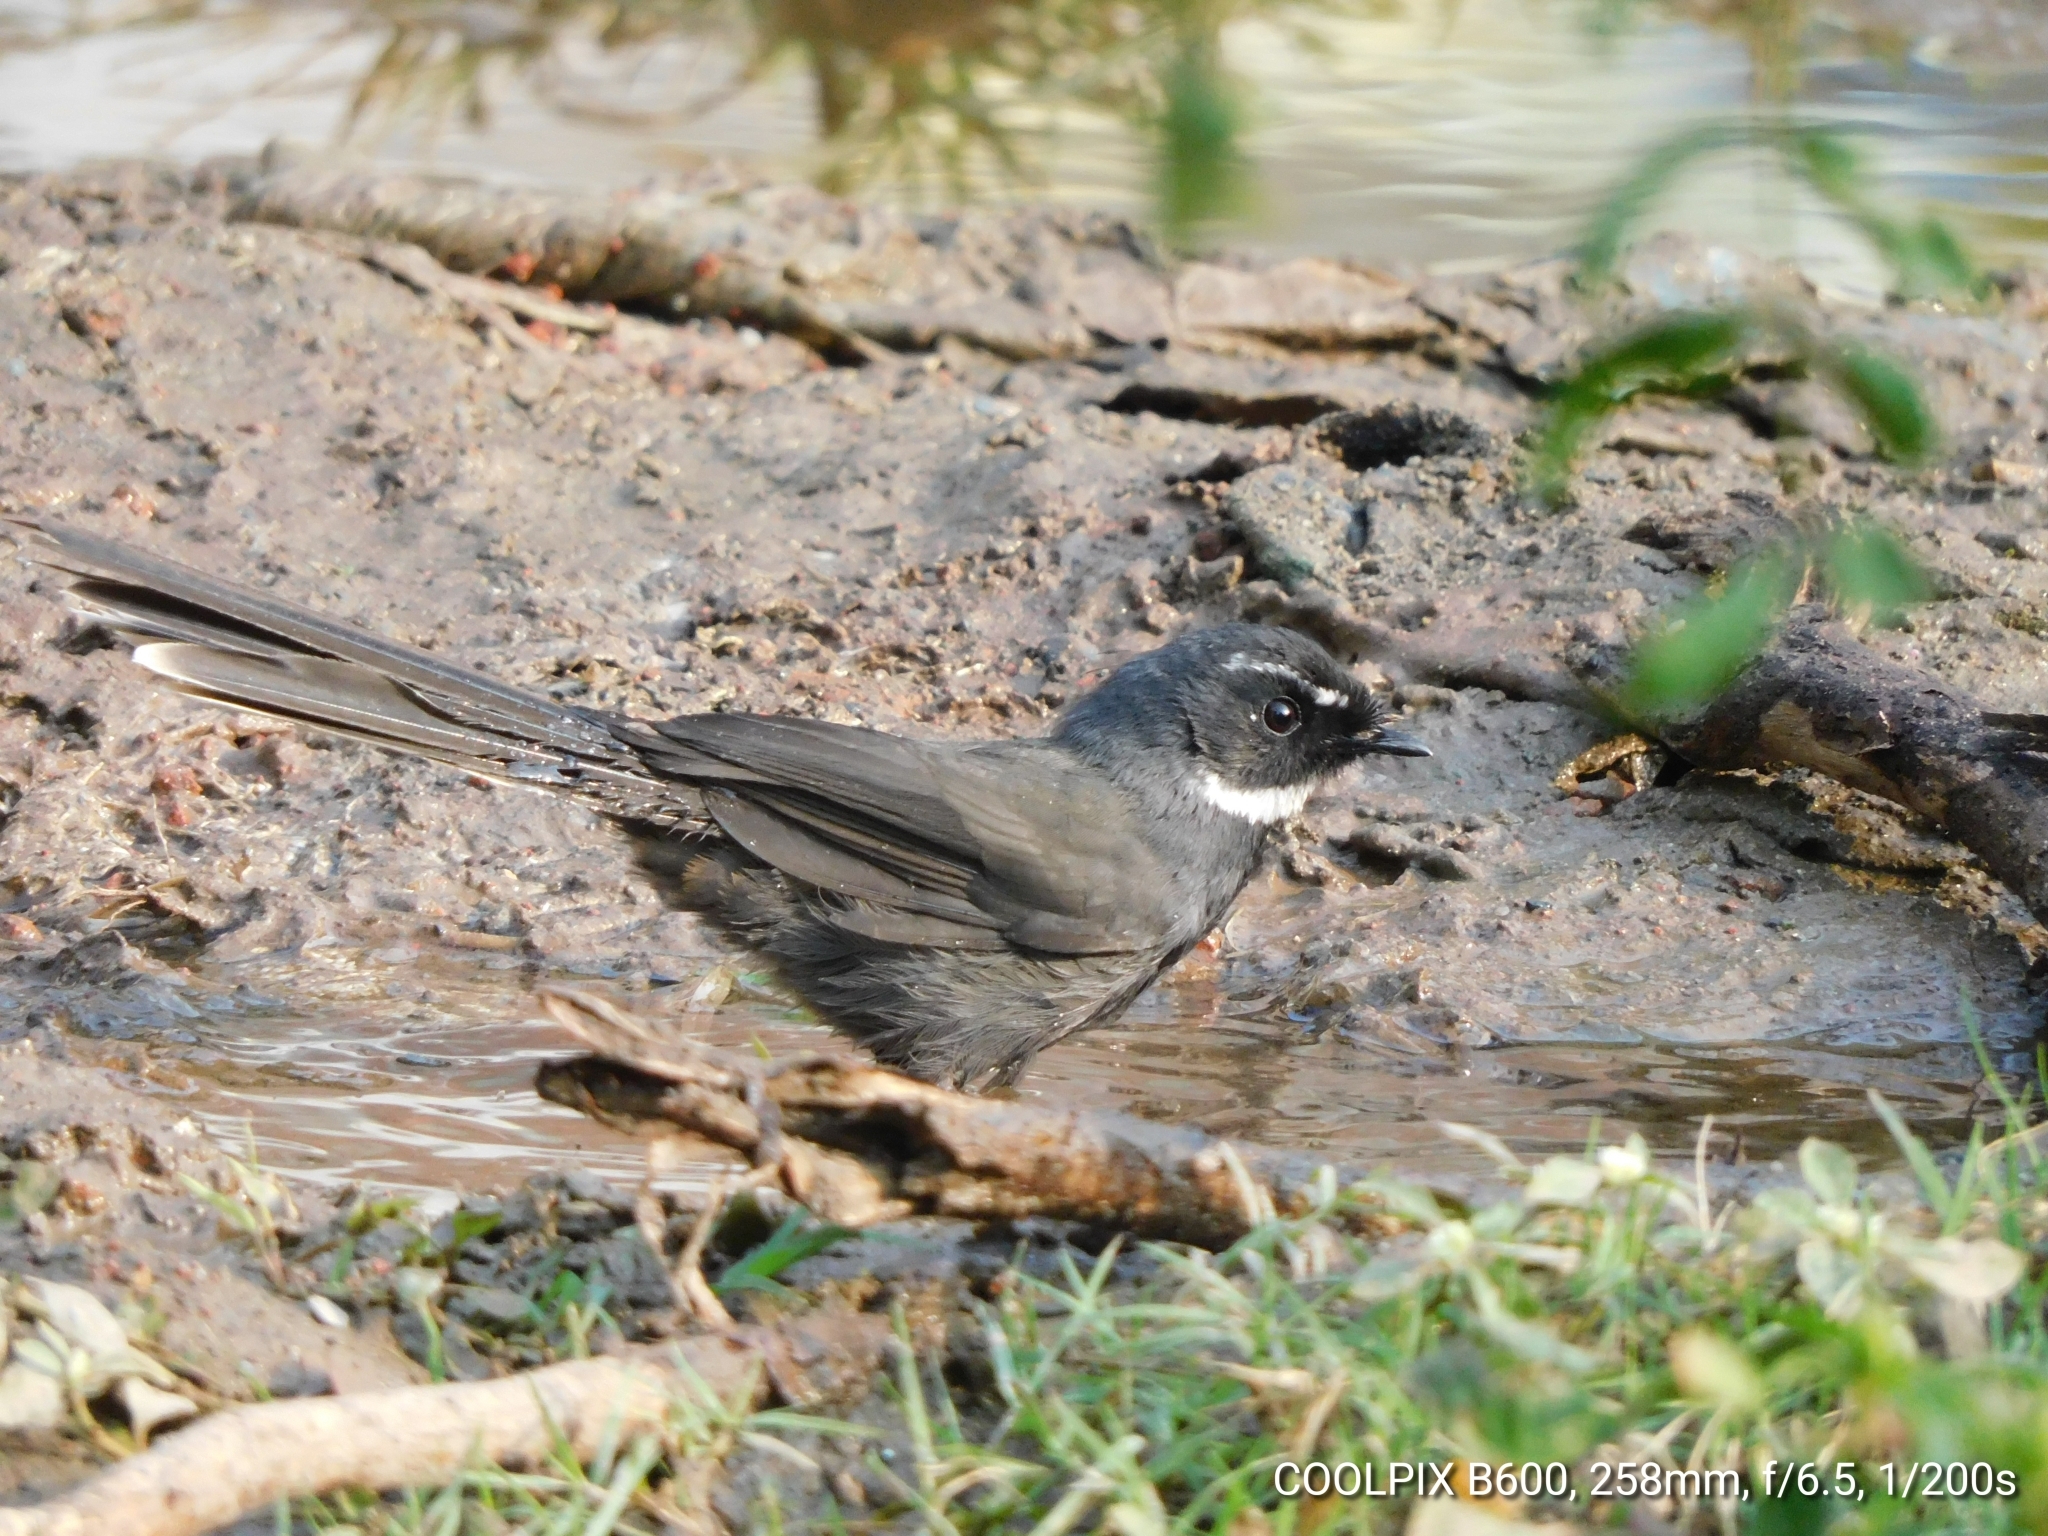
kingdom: Animalia
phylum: Chordata
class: Aves
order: Passeriformes
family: Rhipiduridae
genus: Rhipidura
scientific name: Rhipidura albicollis
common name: White-throated fantail
